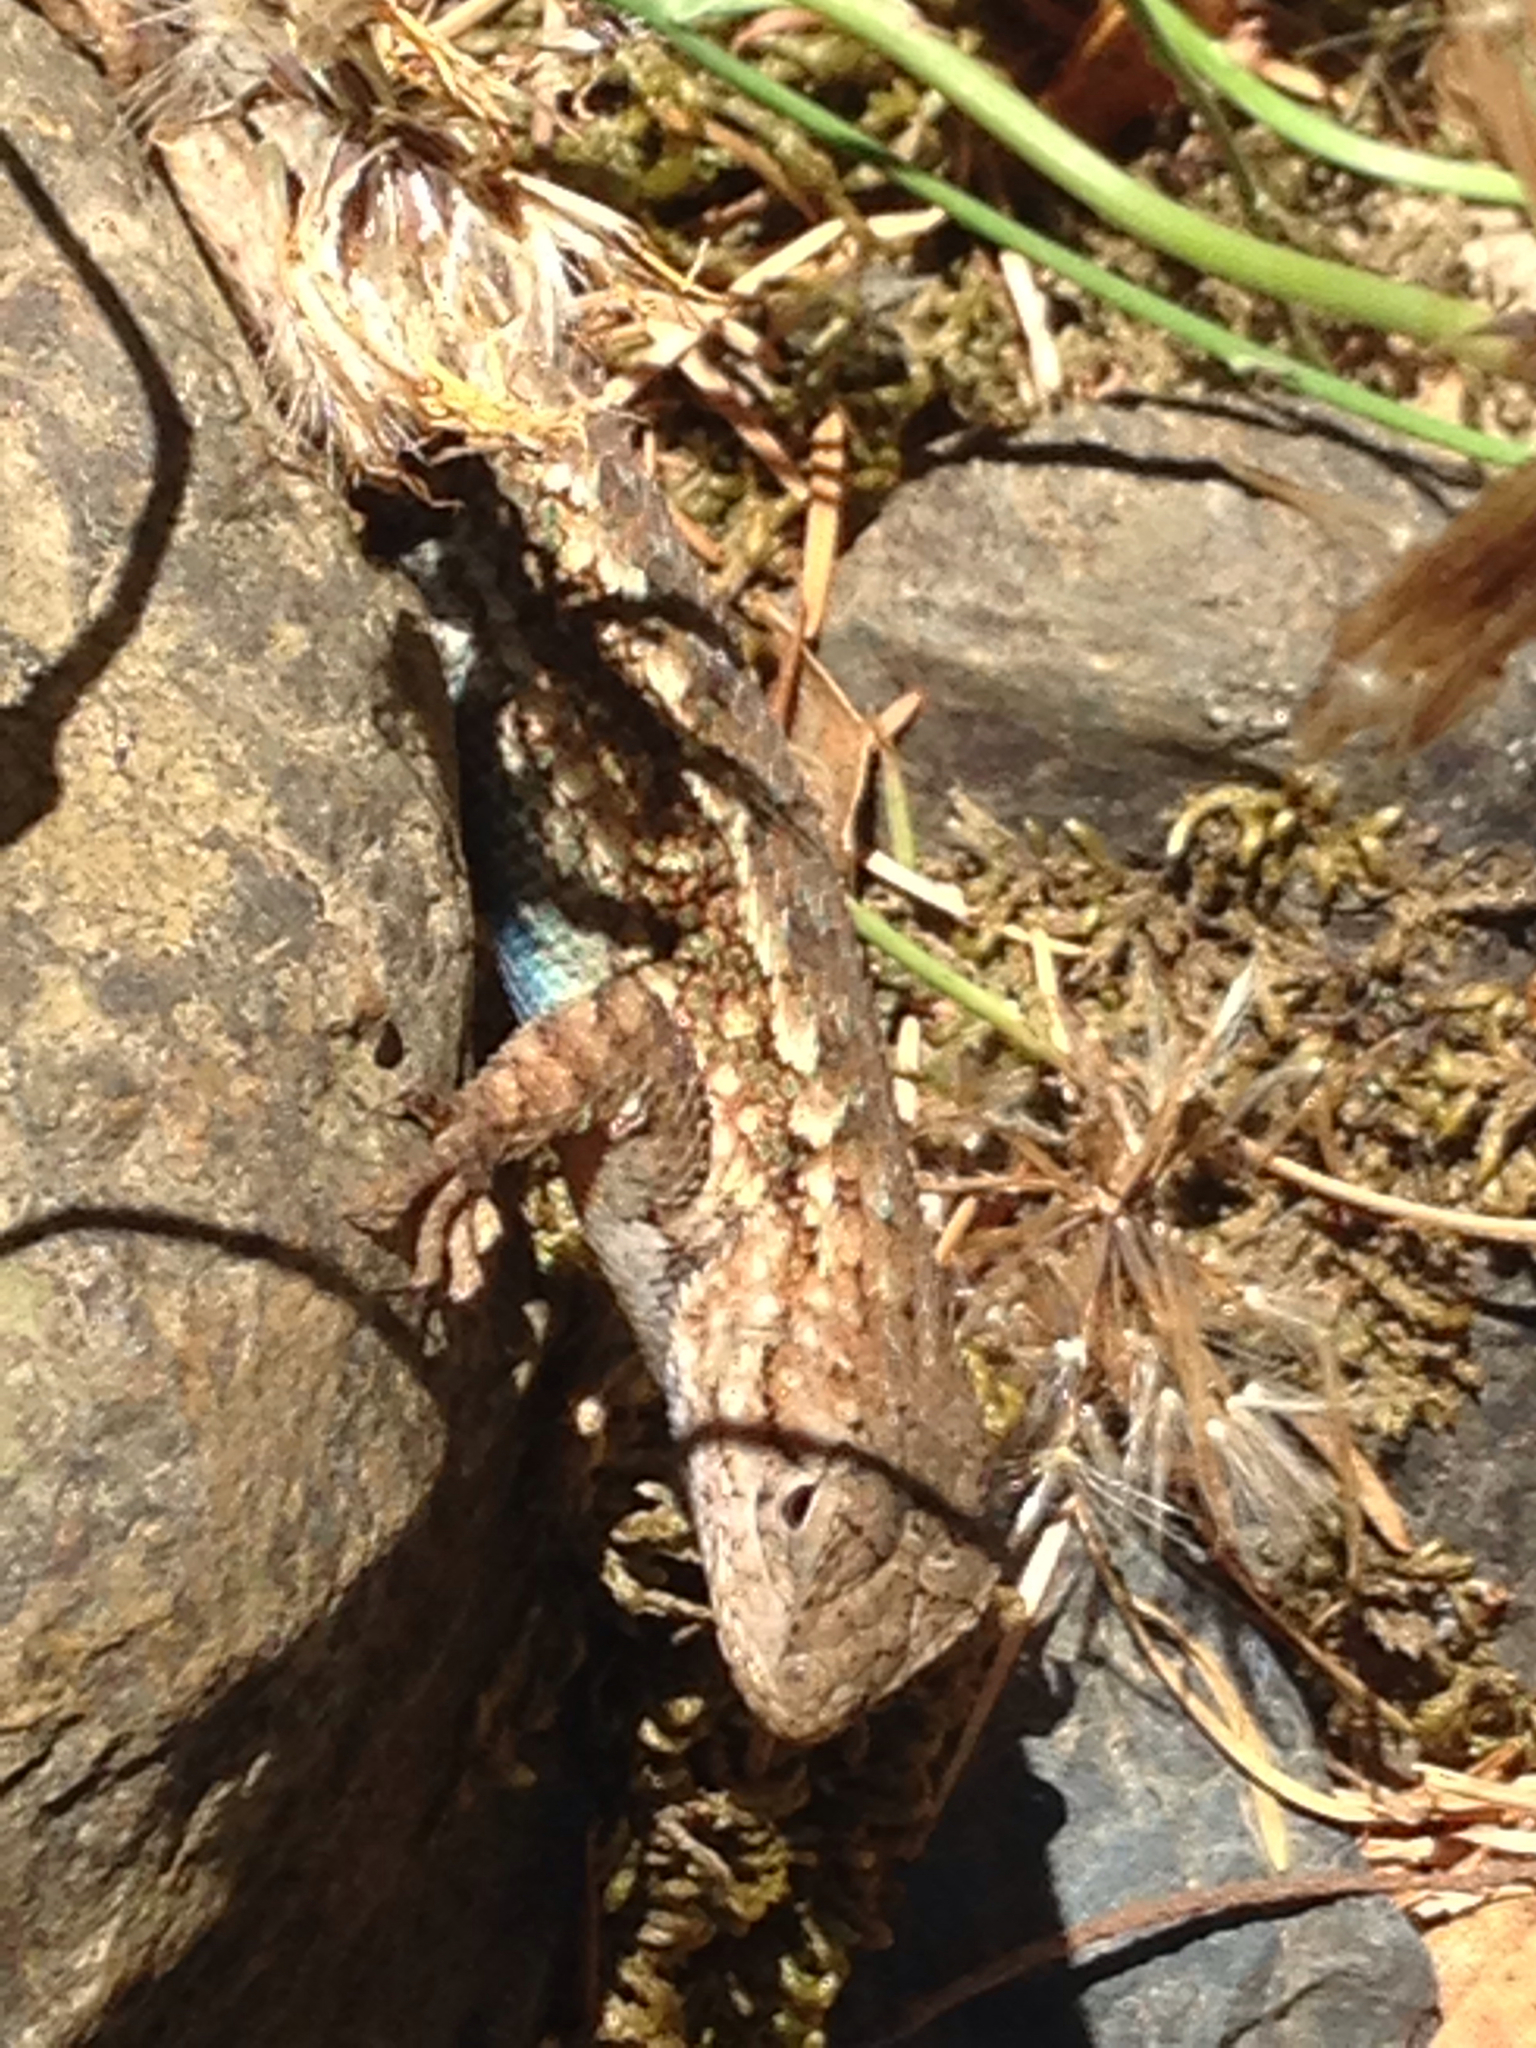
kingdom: Animalia
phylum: Chordata
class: Squamata
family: Phrynosomatidae
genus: Sceloporus
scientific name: Sceloporus occidentalis
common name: Western fence lizard
